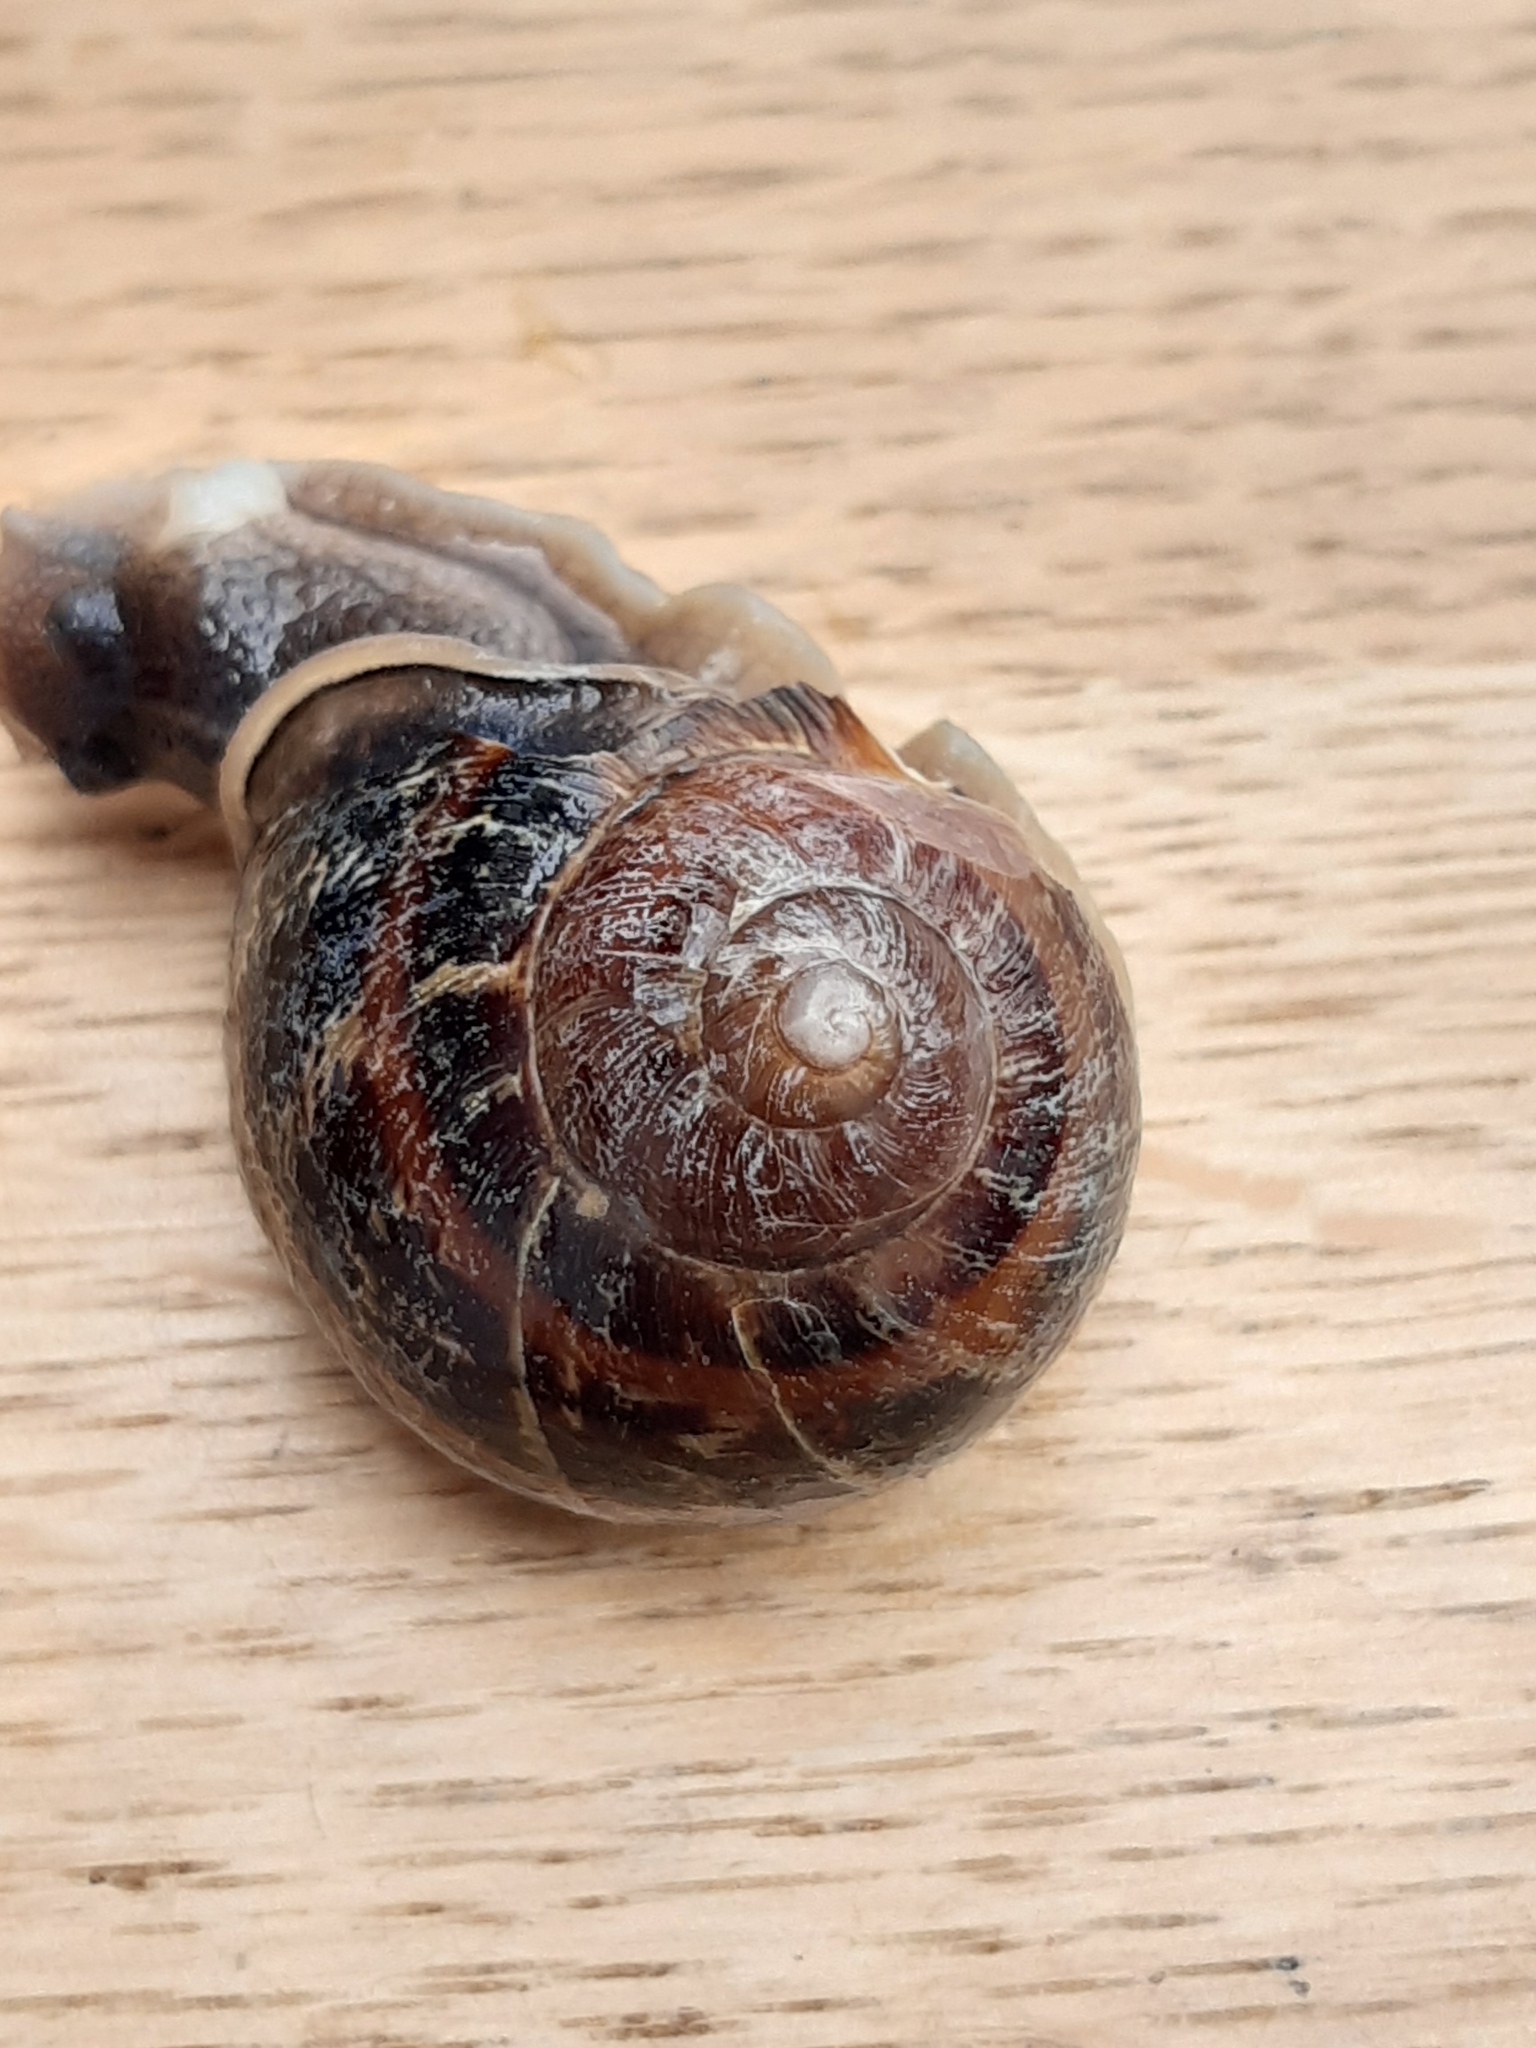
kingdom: Animalia
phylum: Mollusca
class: Gastropoda
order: Stylommatophora
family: Helicidae
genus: Cornu
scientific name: Cornu aspersum
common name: Brown garden snail
